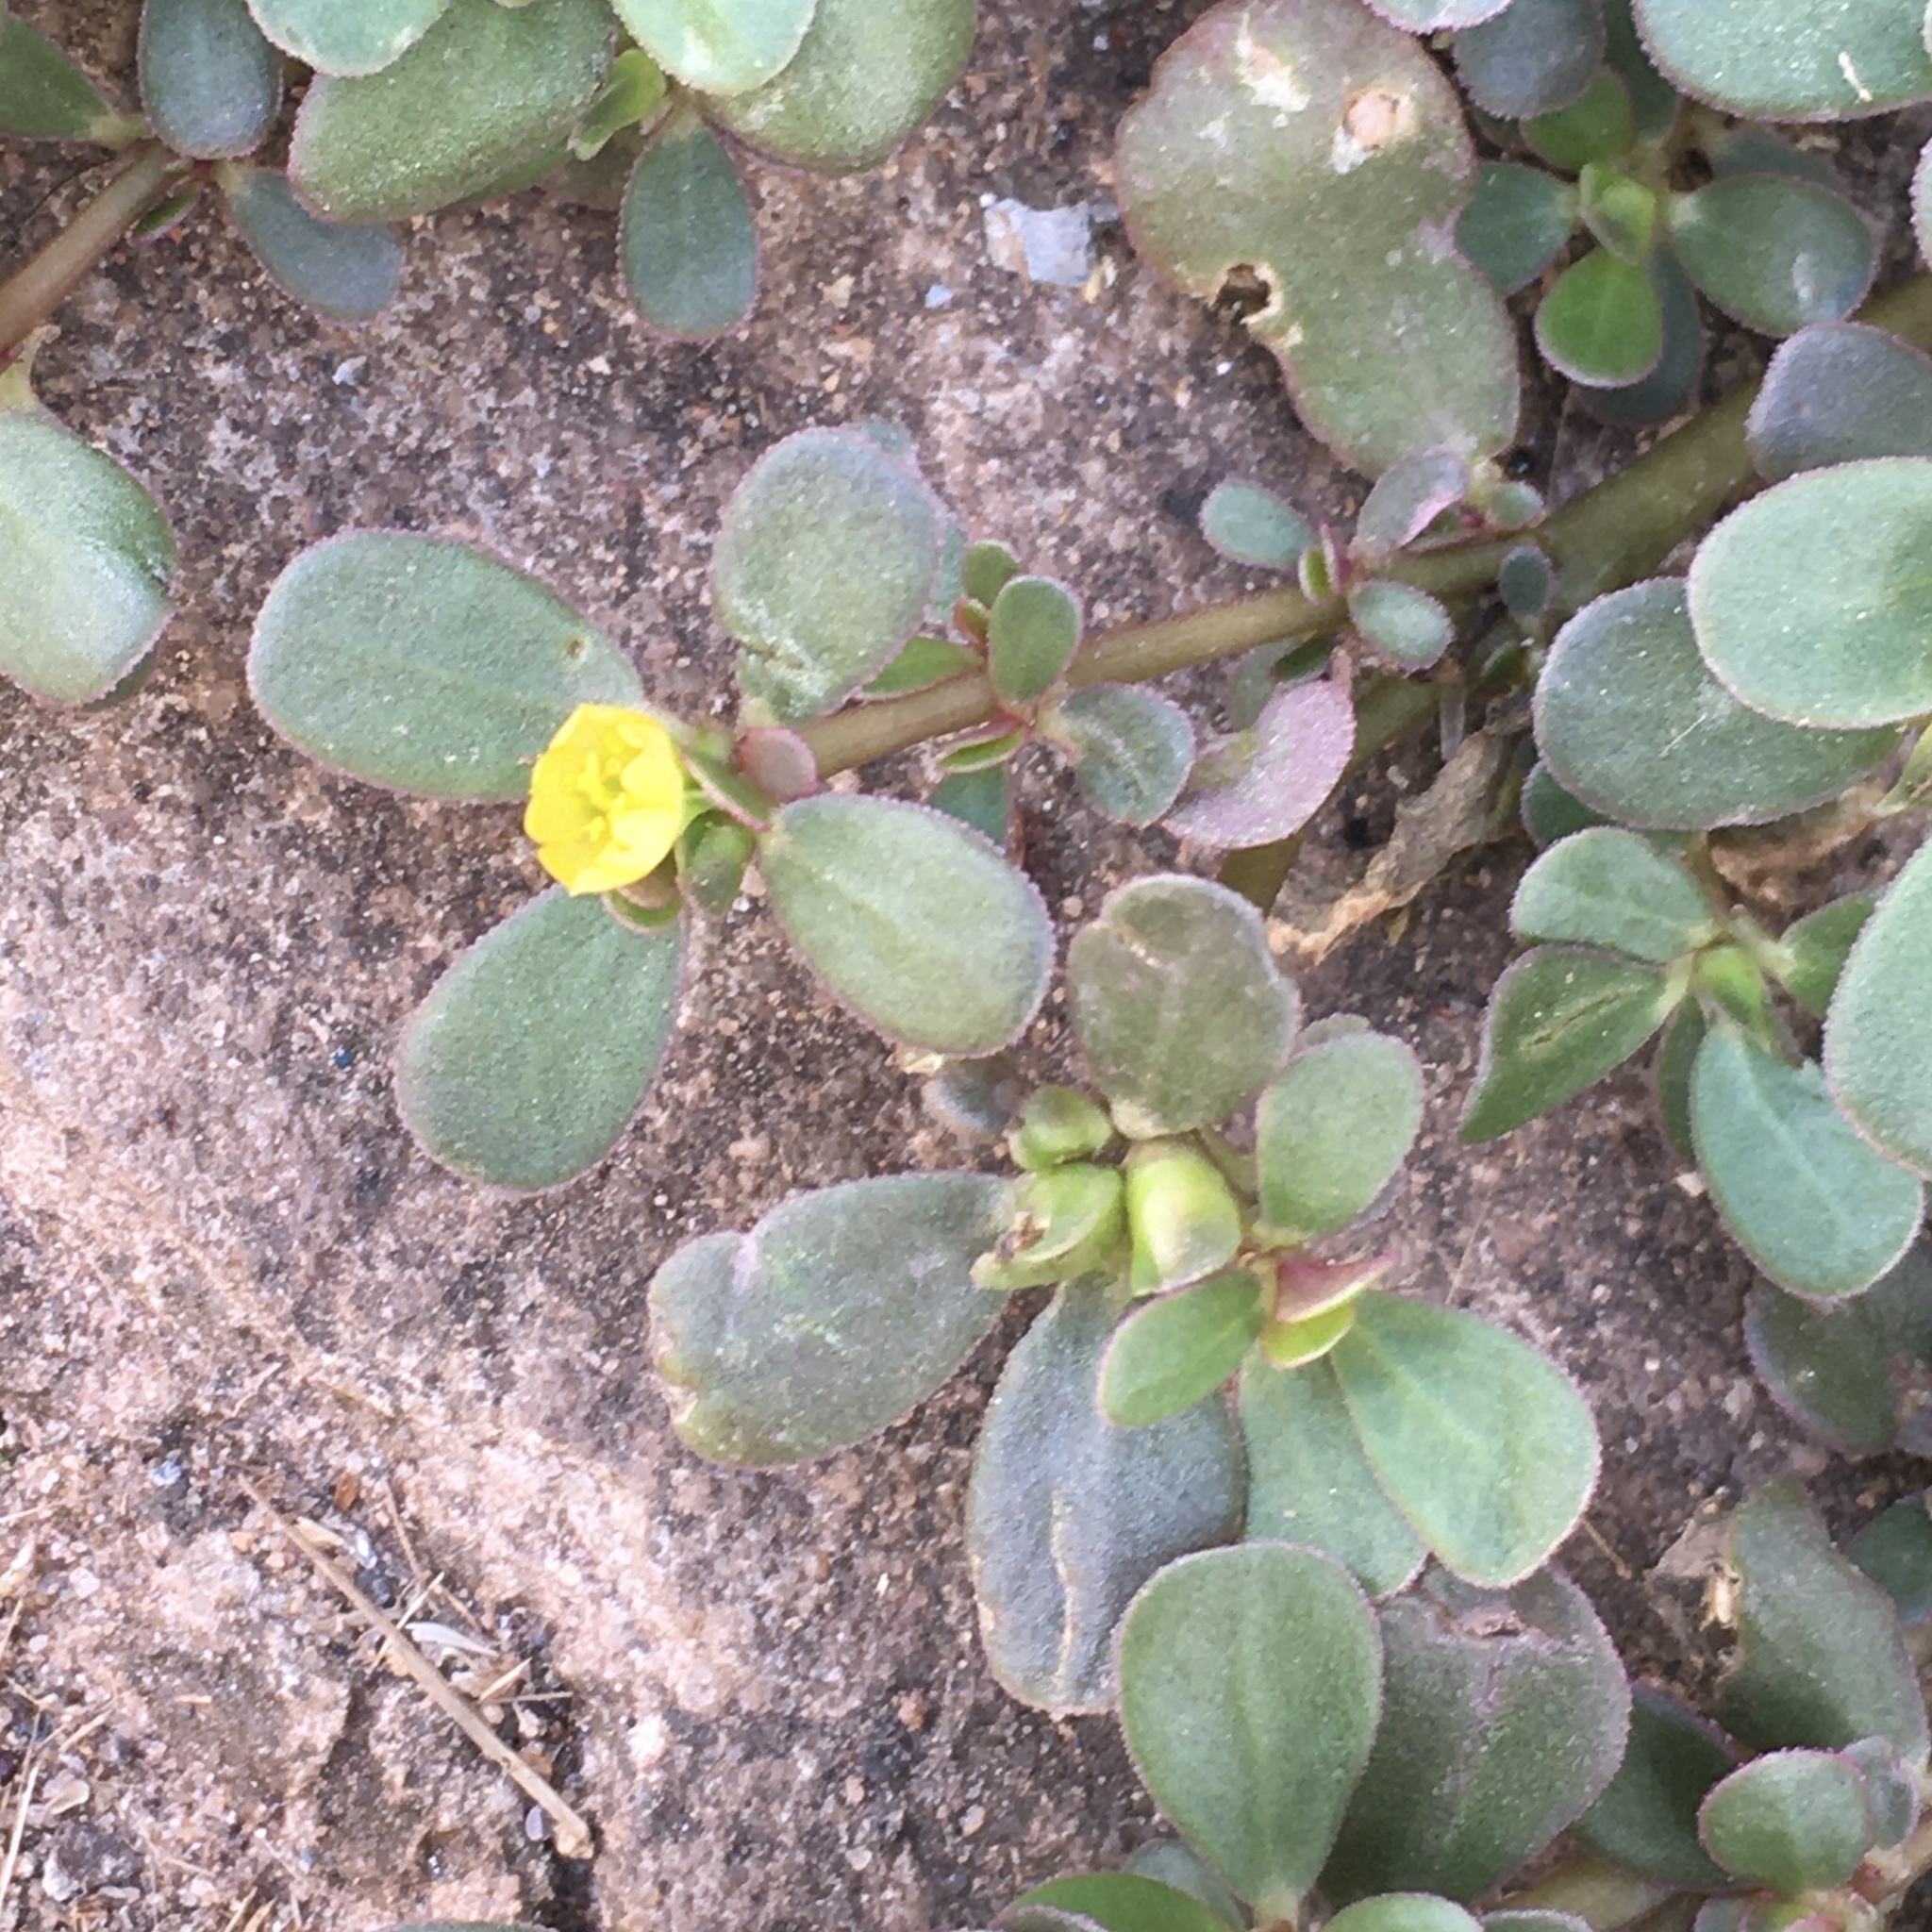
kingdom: Plantae
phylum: Tracheophyta
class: Magnoliopsida
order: Caryophyllales
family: Portulacaceae
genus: Portulaca
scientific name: Portulaca oleracea
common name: Common purslane
